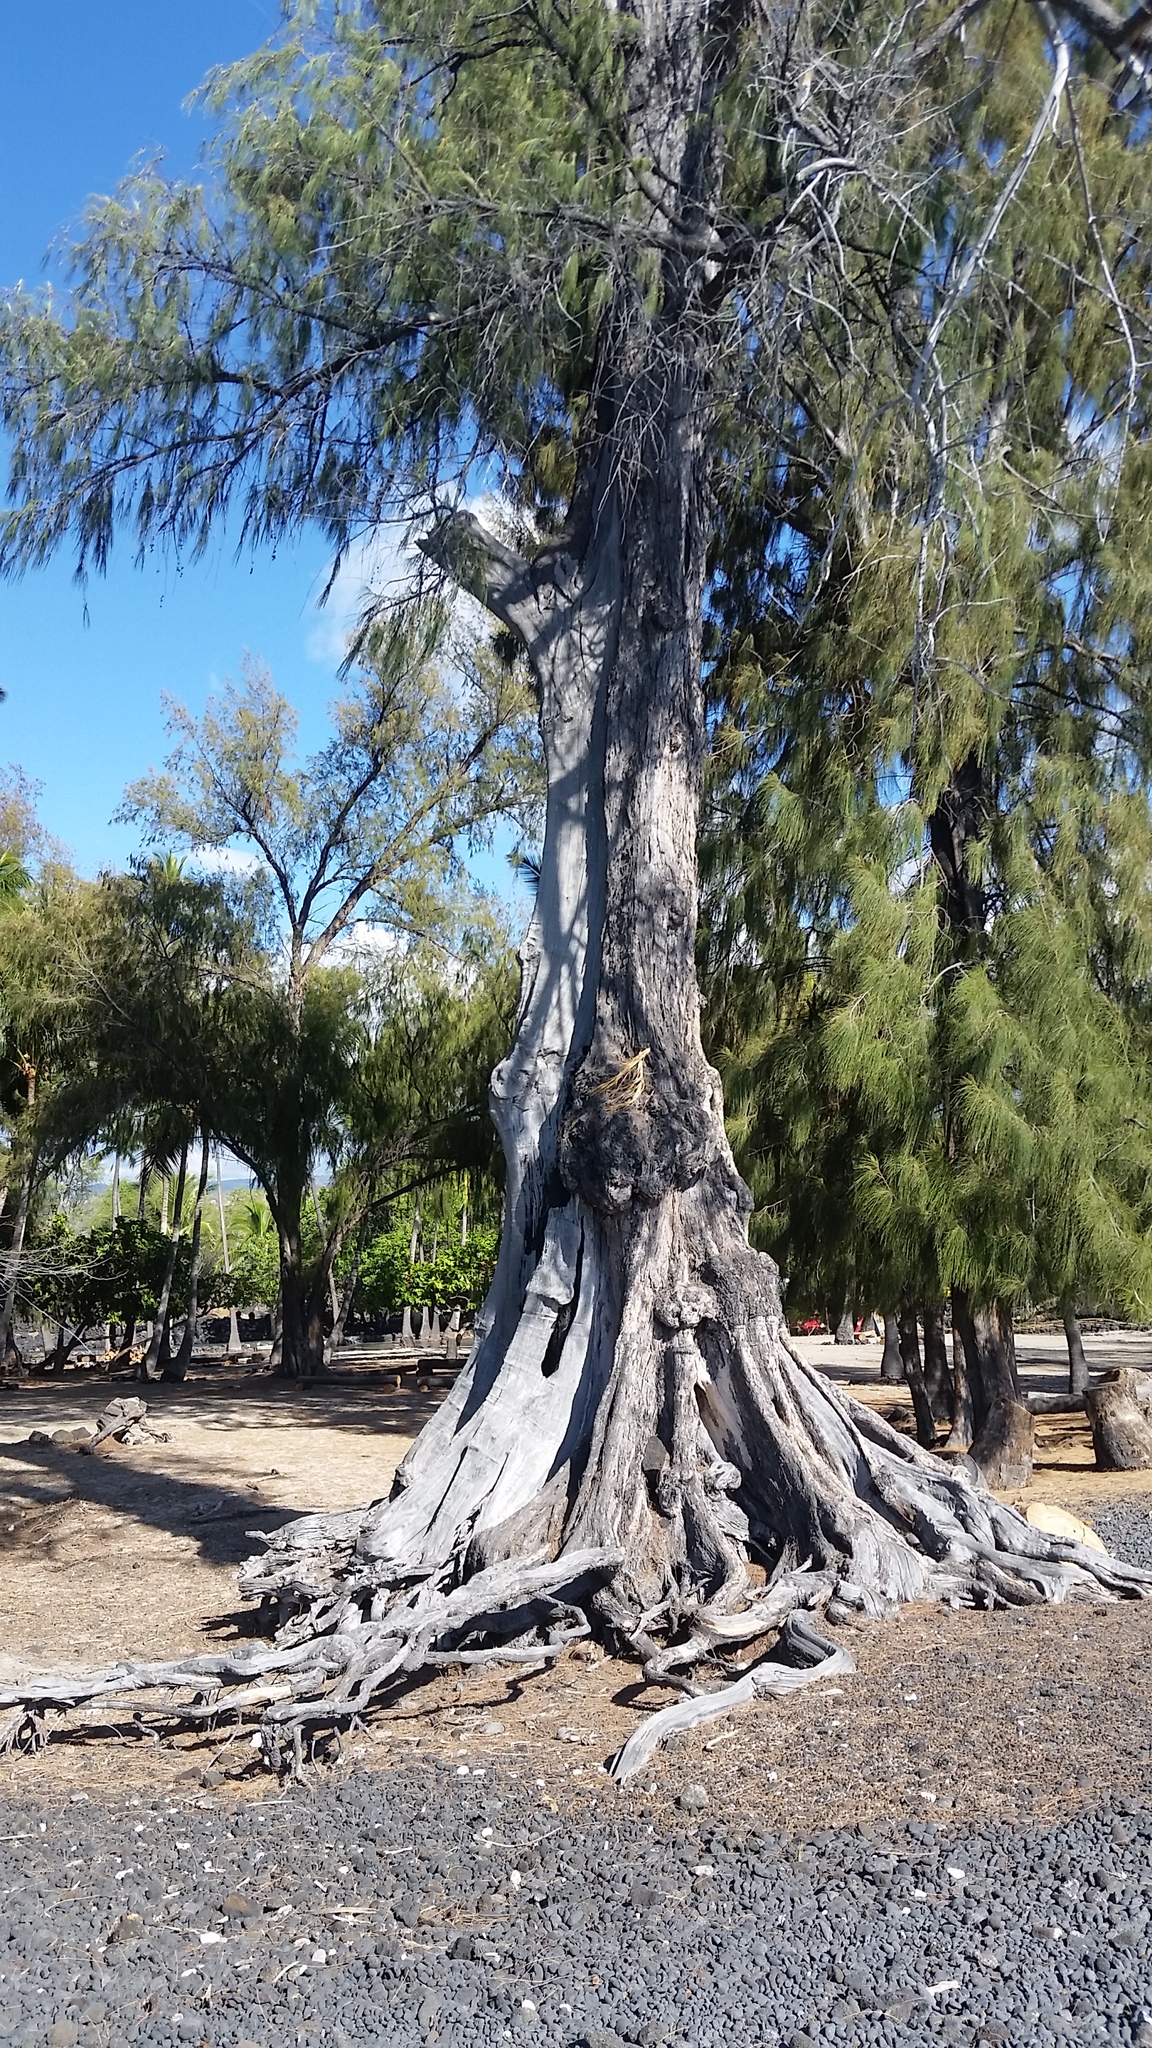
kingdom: Plantae
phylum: Tracheophyta
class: Magnoliopsida
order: Fagales
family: Casuarinaceae
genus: Casuarina
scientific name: Casuarina equisetifolia
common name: Beach sheoak
